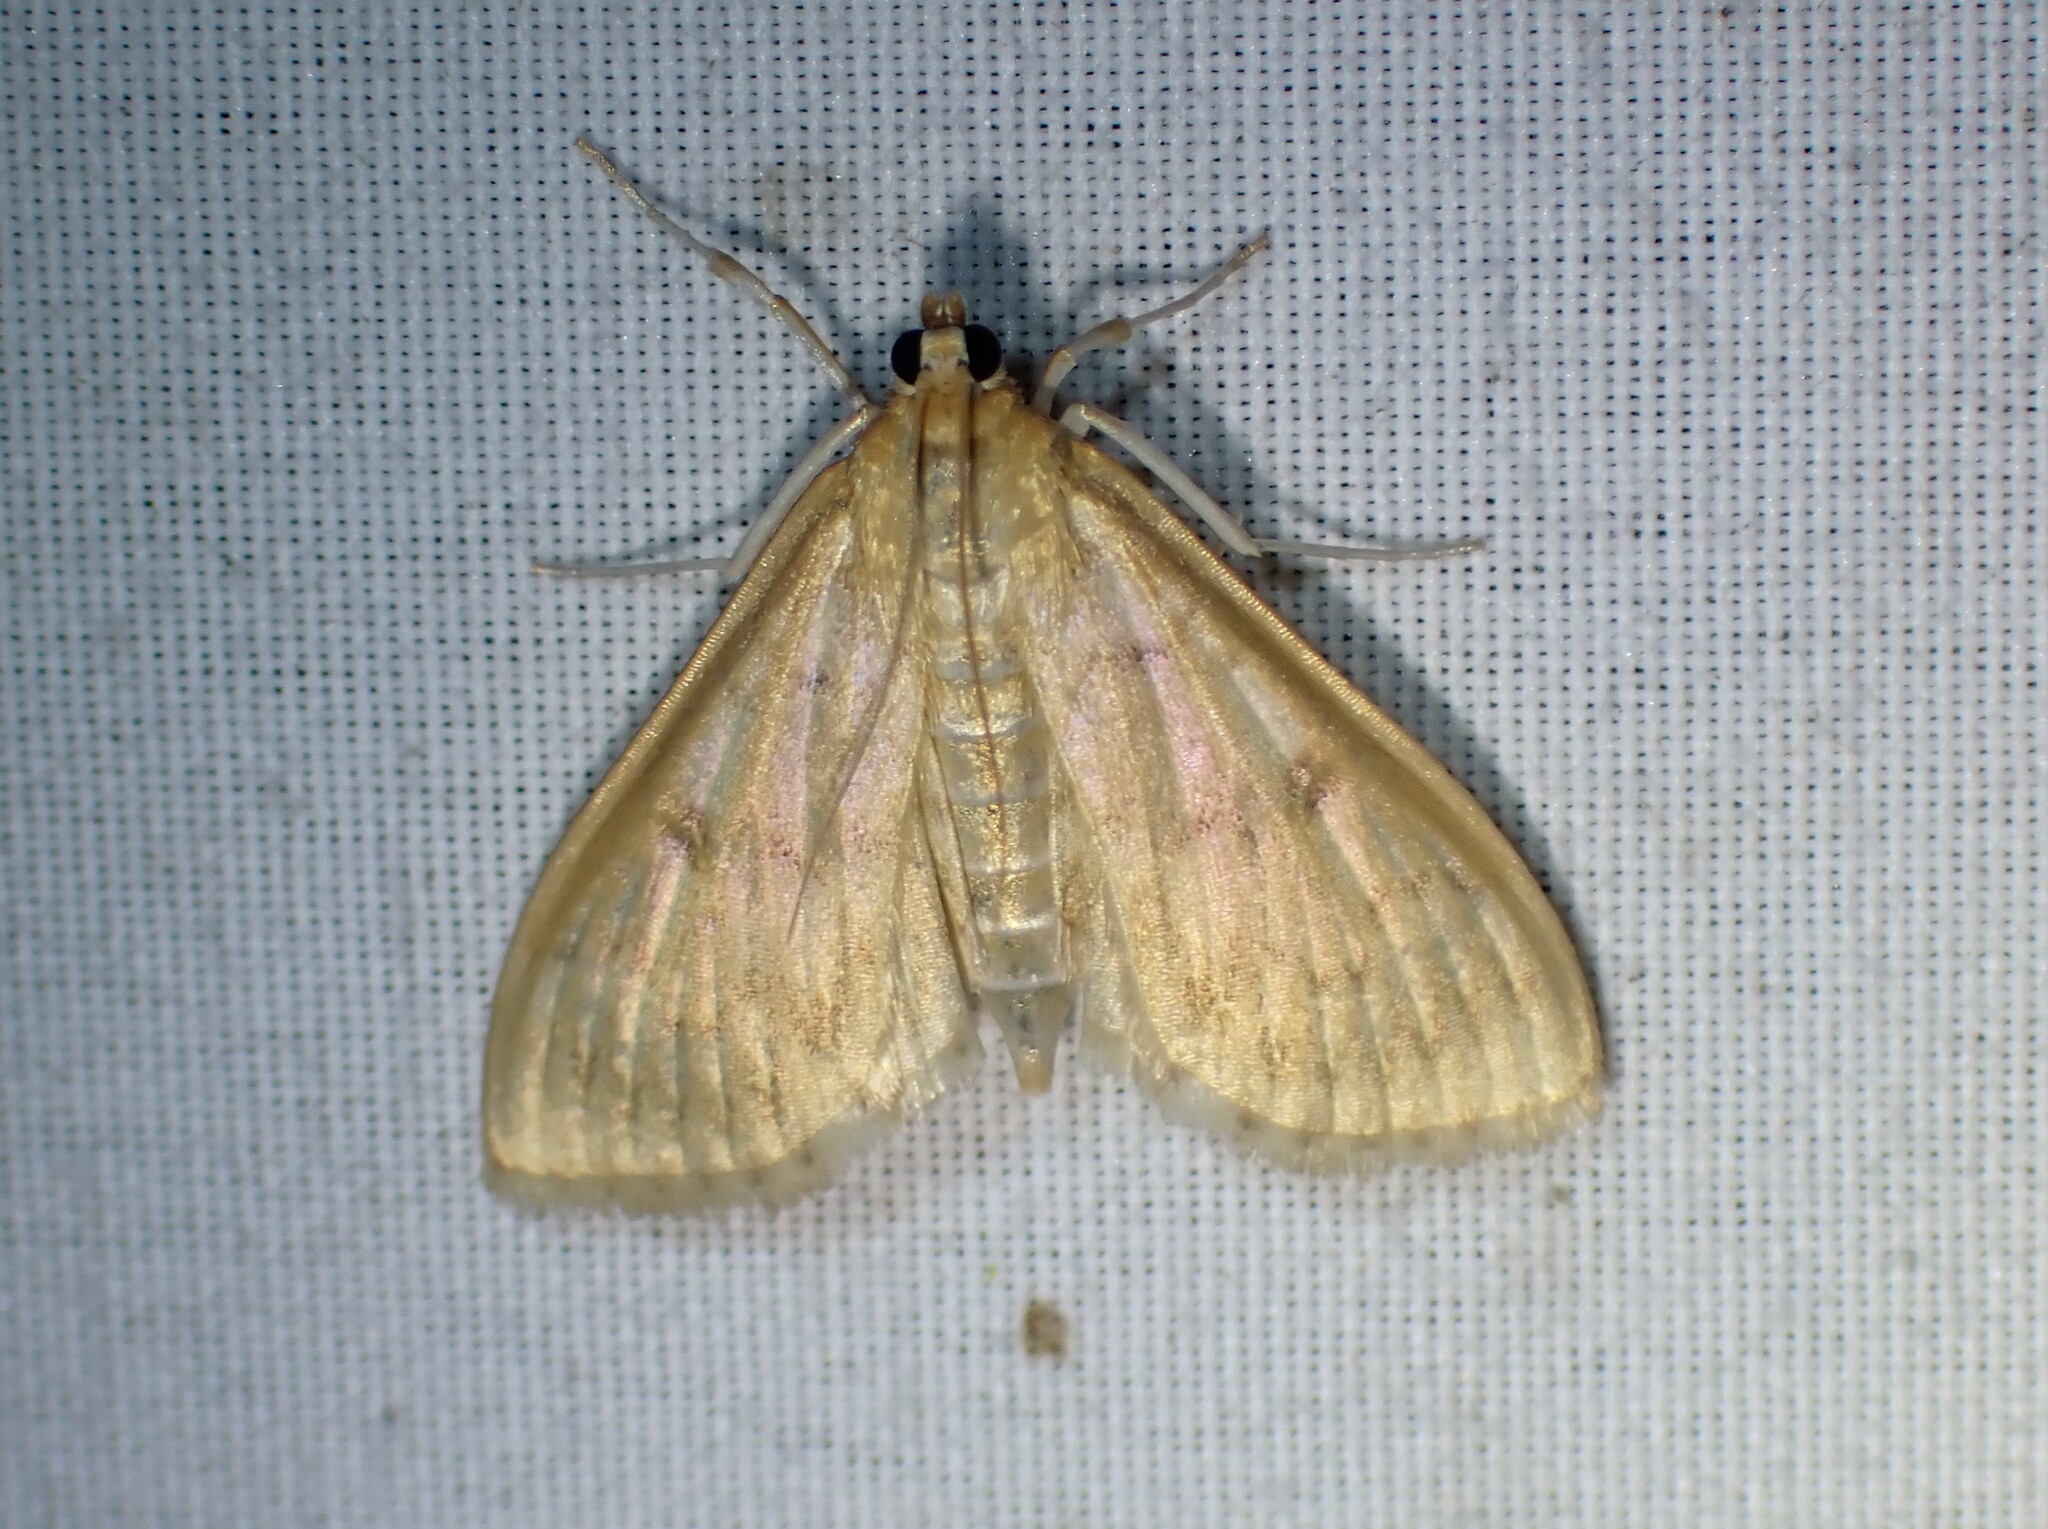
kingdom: Animalia
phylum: Arthropoda
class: Insecta
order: Lepidoptera
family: Crambidae
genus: Anania
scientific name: Anania Framinghamia helvalis
